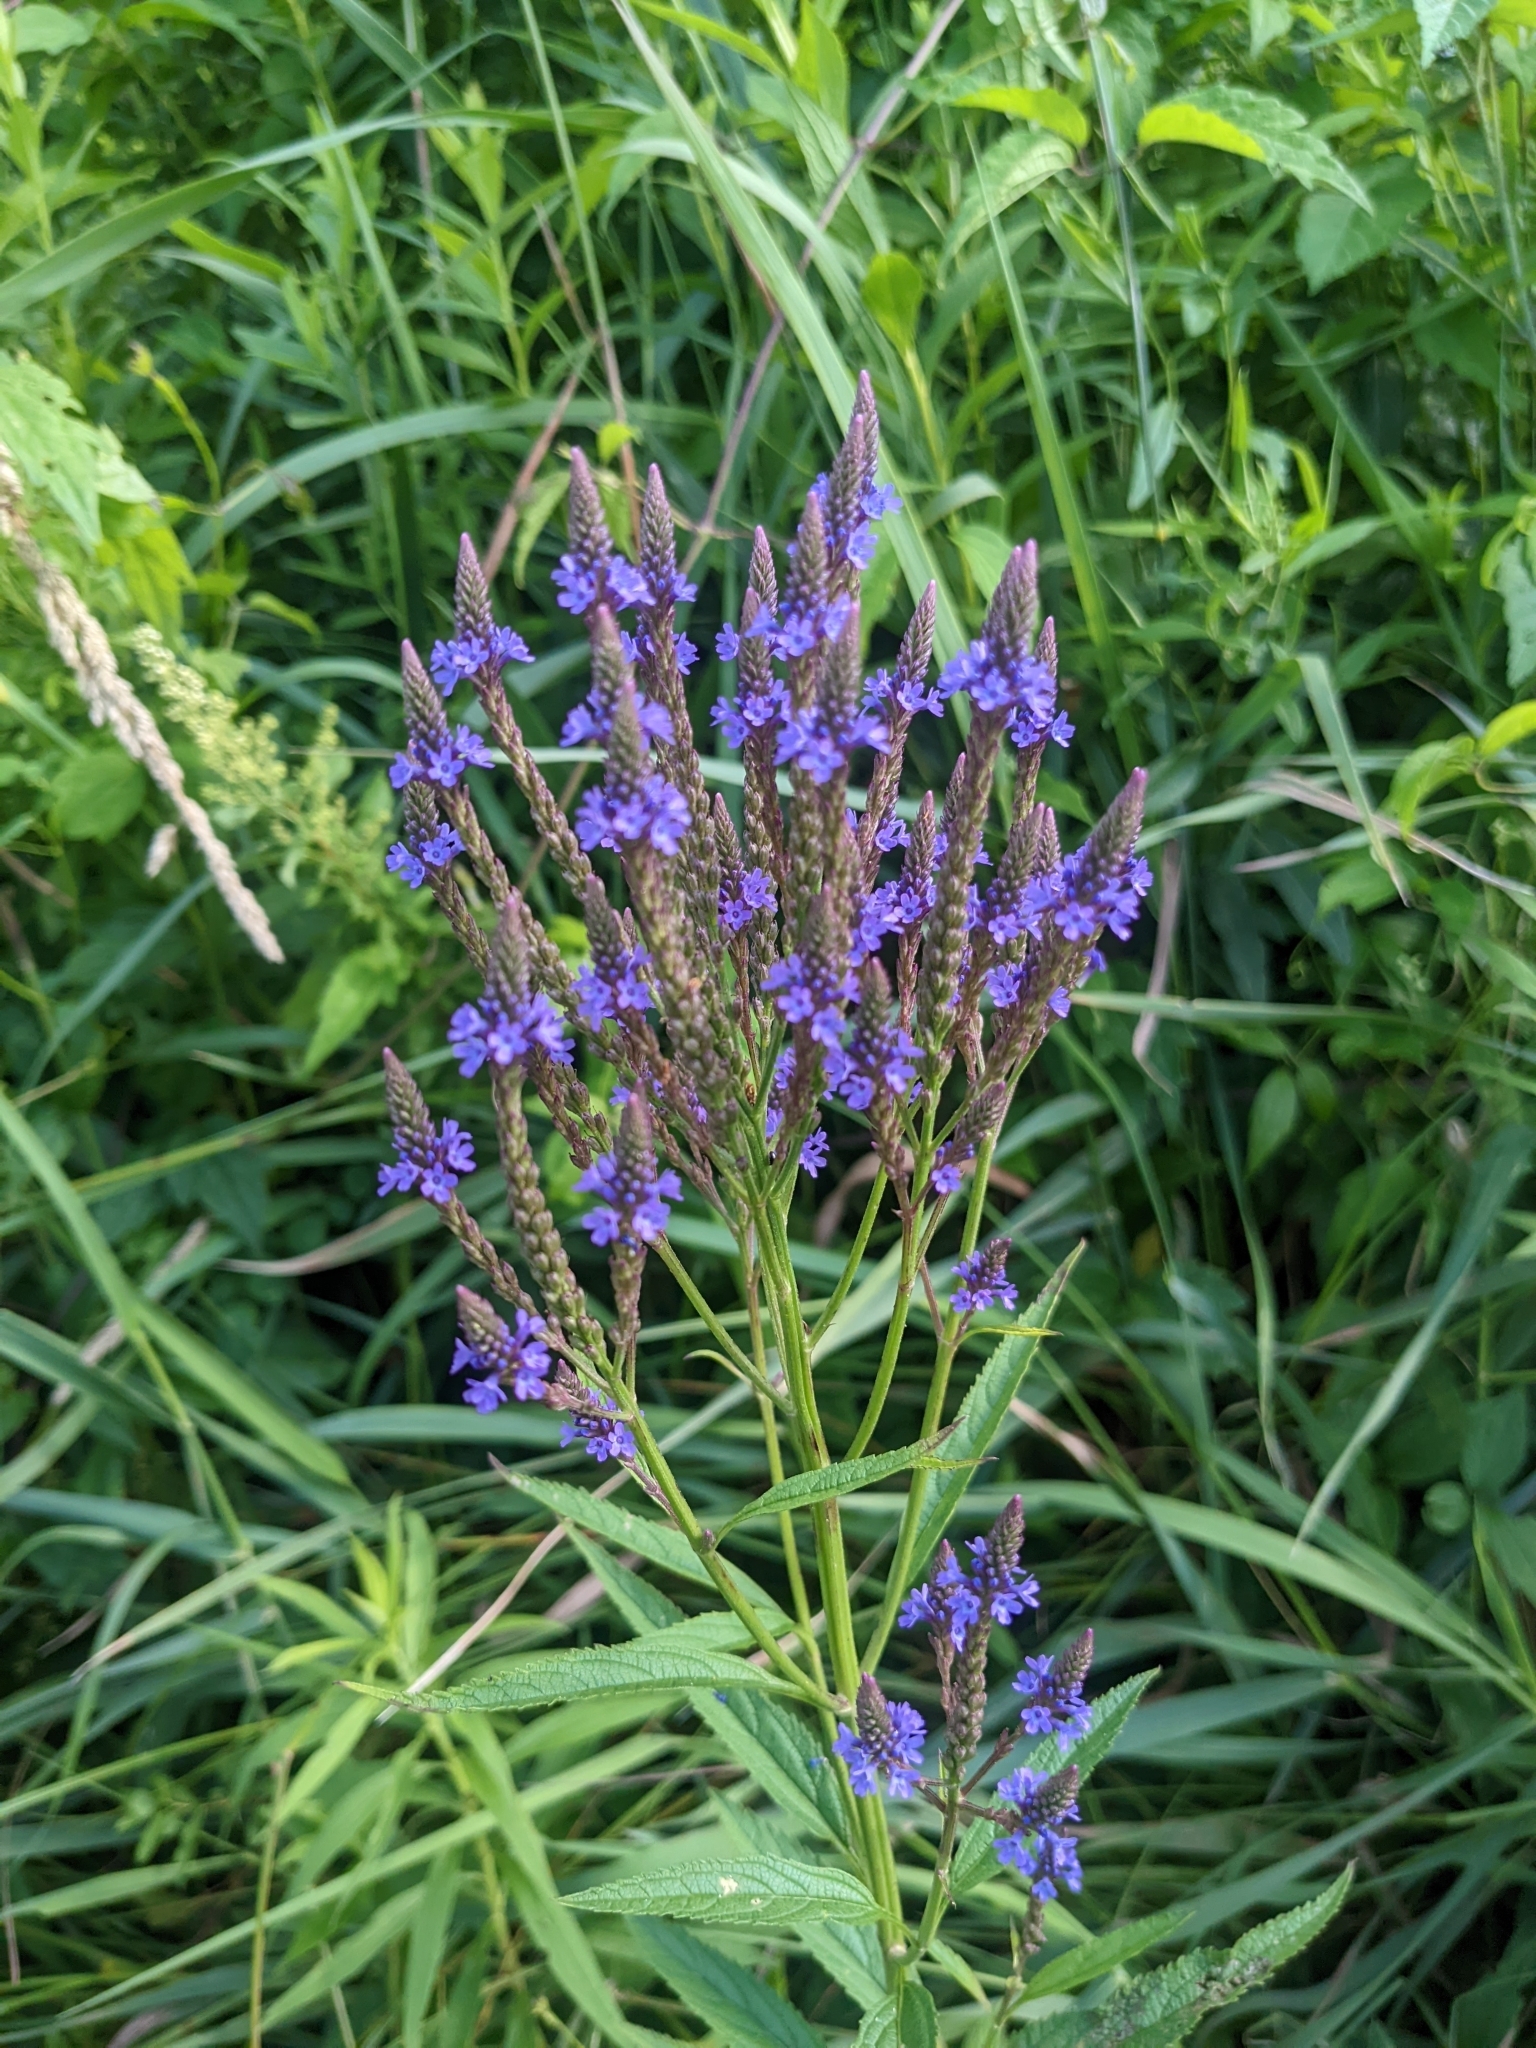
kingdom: Plantae
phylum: Tracheophyta
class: Magnoliopsida
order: Lamiales
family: Verbenaceae
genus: Verbena
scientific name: Verbena hastata
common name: American blue vervain
